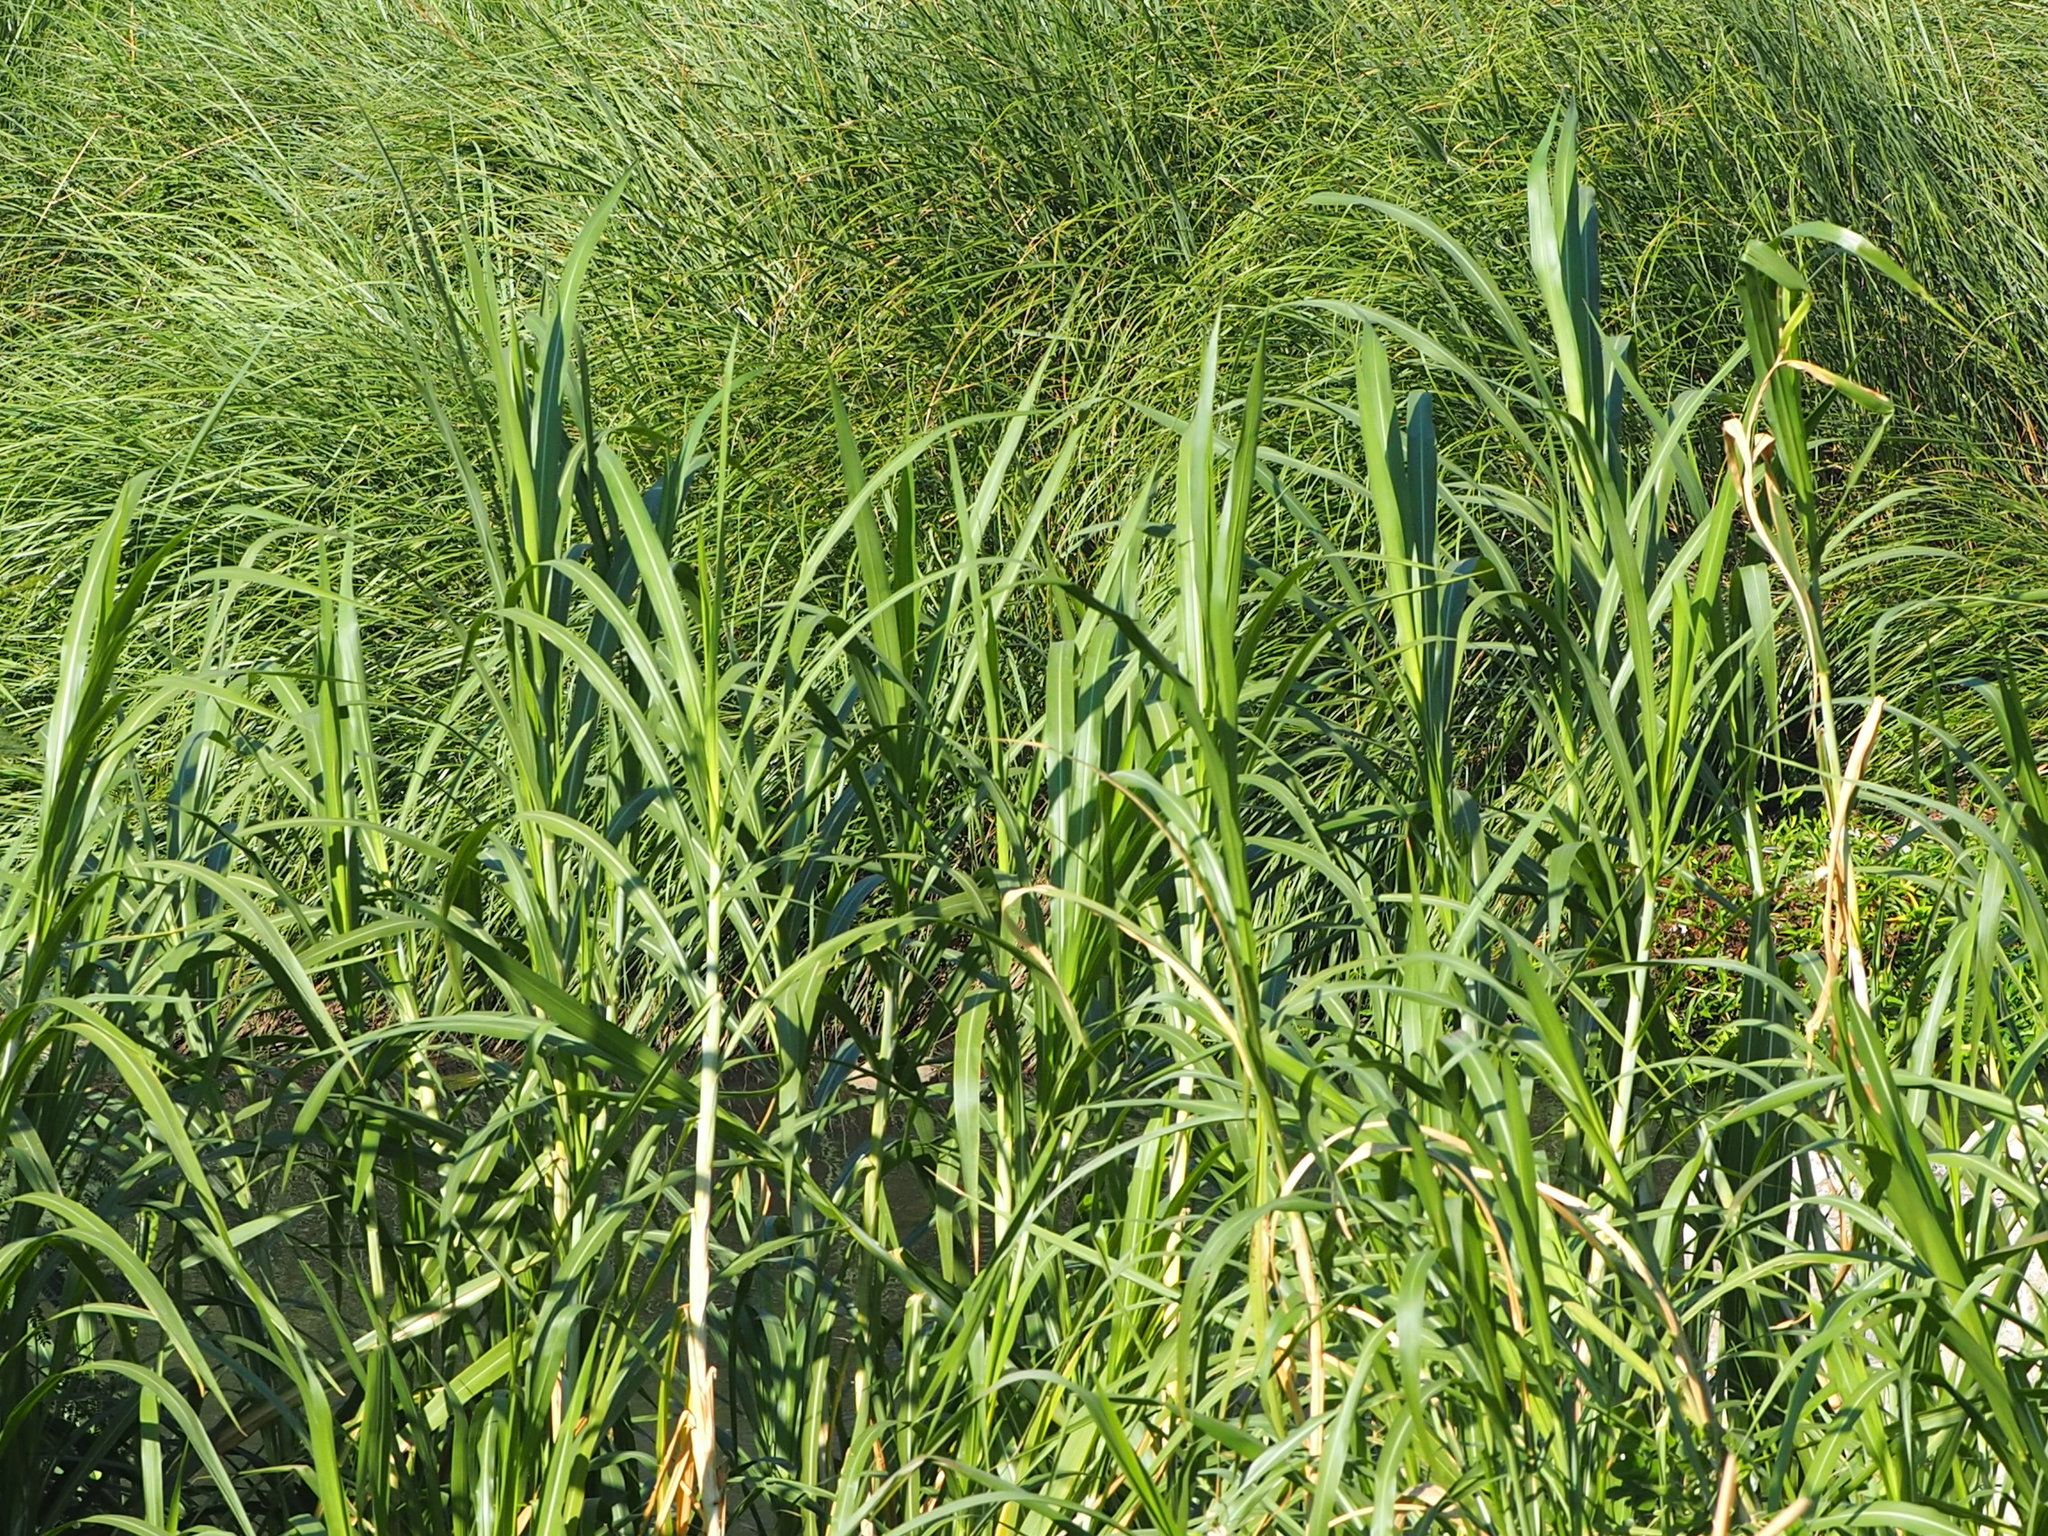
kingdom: Plantae
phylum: Tracheophyta
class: Liliopsida
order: Poales
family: Poaceae
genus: Cenchrus
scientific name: Cenchrus purpureus
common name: Elephant grass
